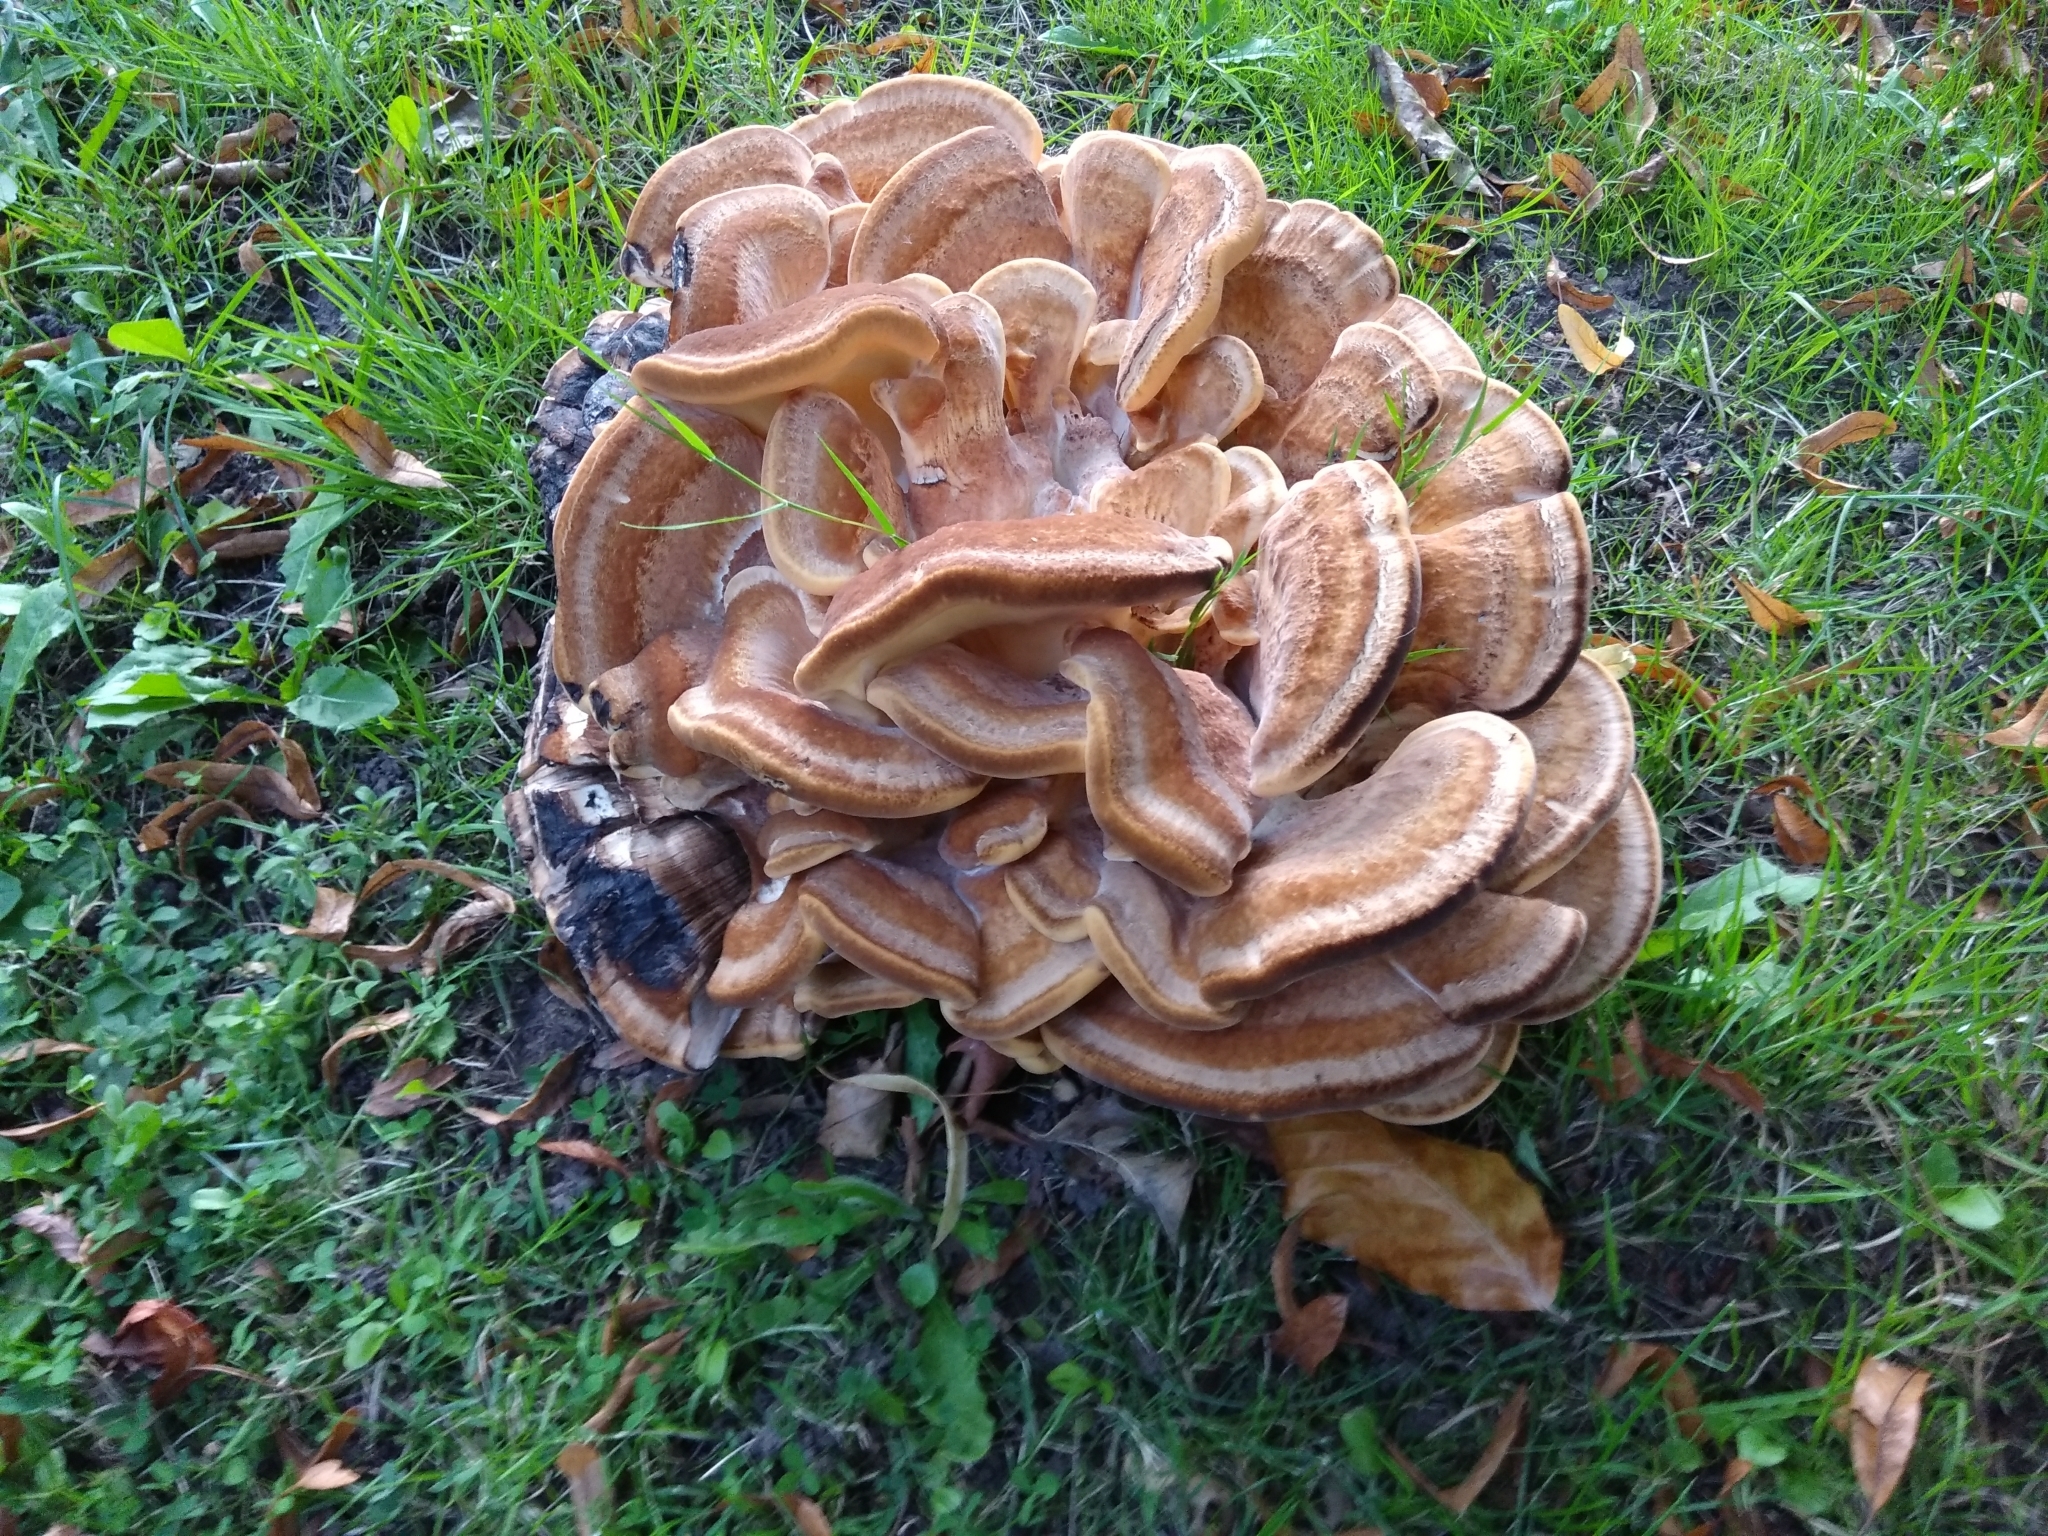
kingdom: Fungi
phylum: Basidiomycota
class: Agaricomycetes
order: Polyporales
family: Meripilaceae
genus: Meripilus
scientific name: Meripilus giganteus
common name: Giant polypore
